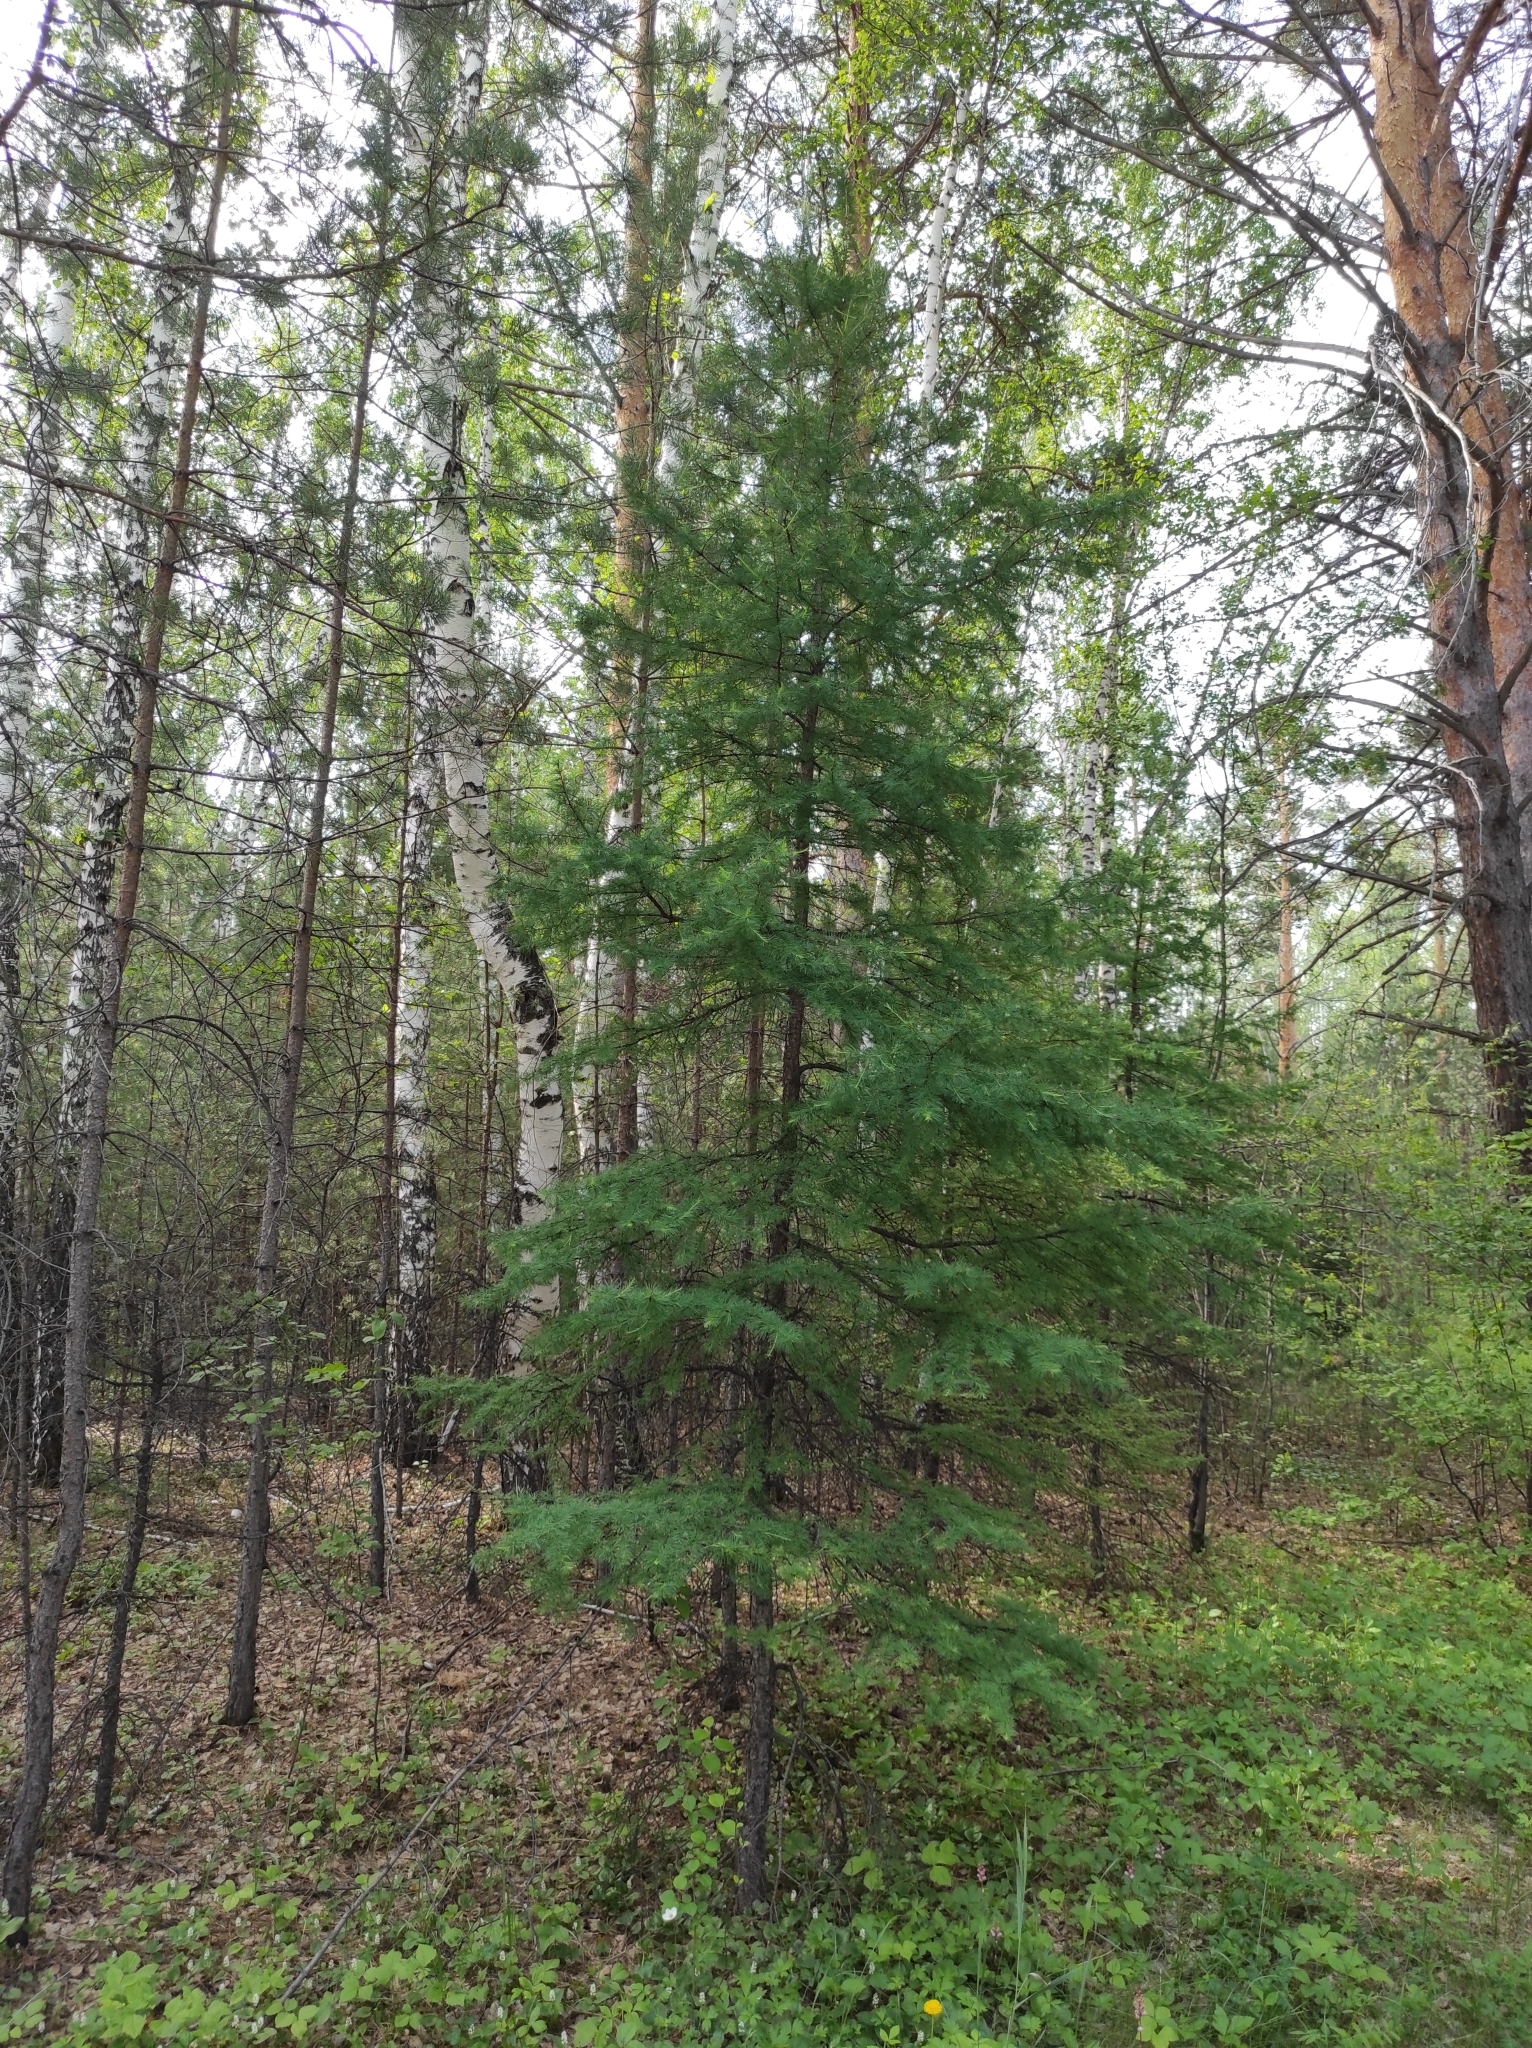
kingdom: Plantae
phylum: Tracheophyta
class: Pinopsida
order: Pinales
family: Pinaceae
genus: Larix
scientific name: Larix sibirica
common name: Siberian larch
